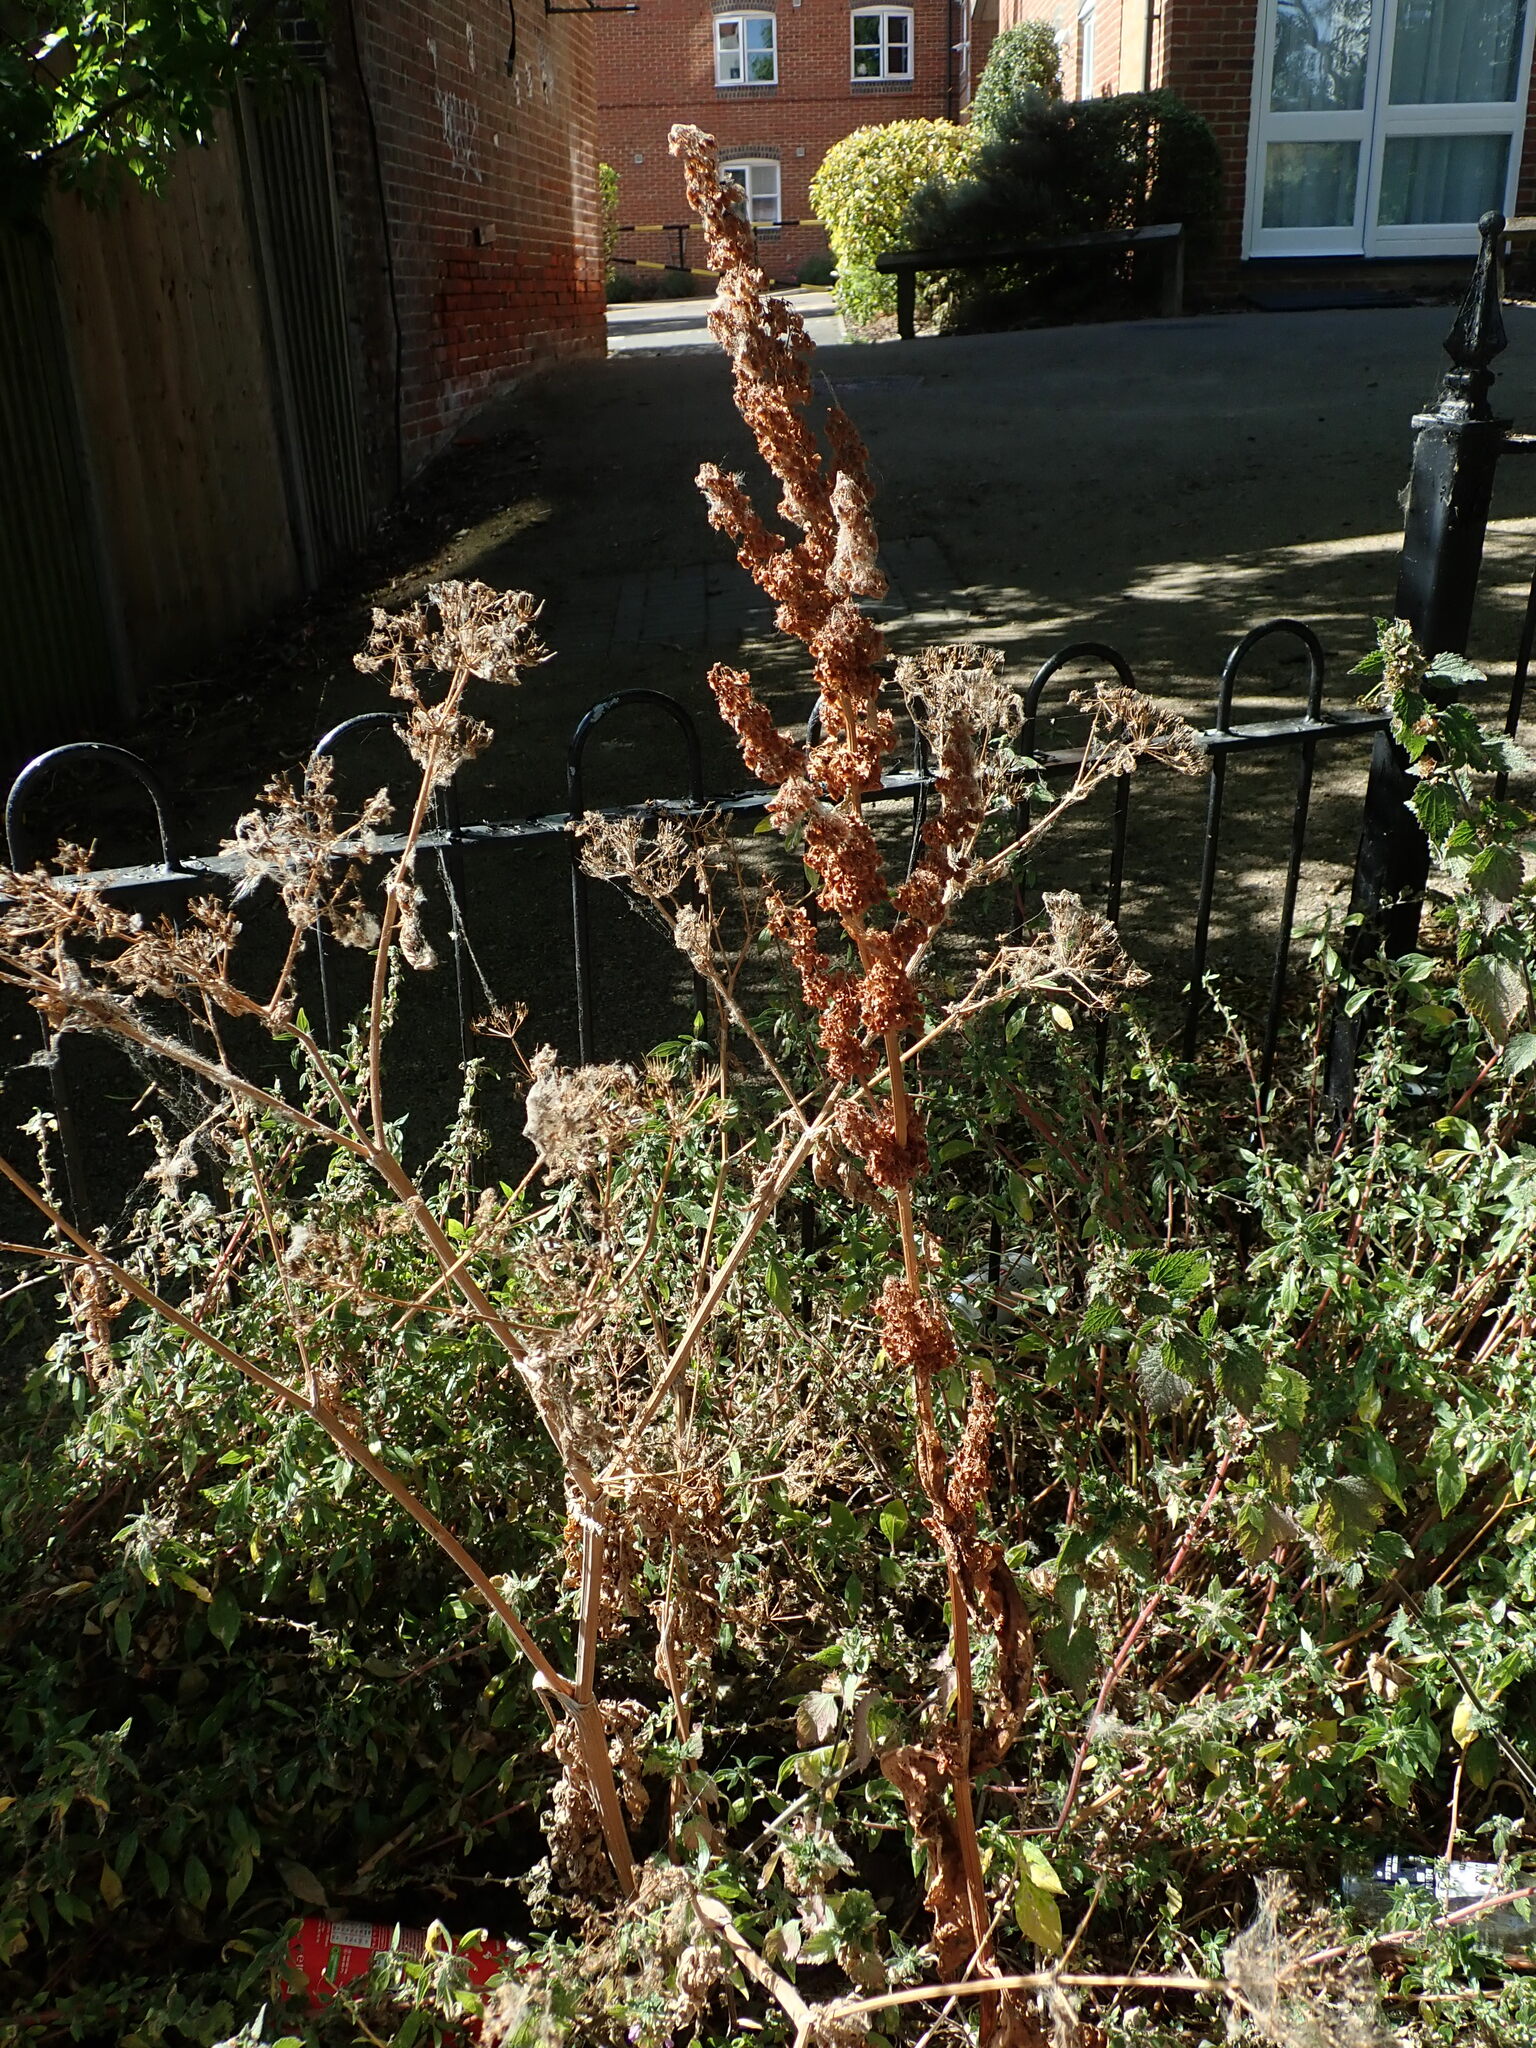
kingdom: Plantae
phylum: Tracheophyta
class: Magnoliopsida
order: Caryophyllales
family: Polygonaceae
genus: Rumex
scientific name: Rumex cristatus
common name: Greek dock
